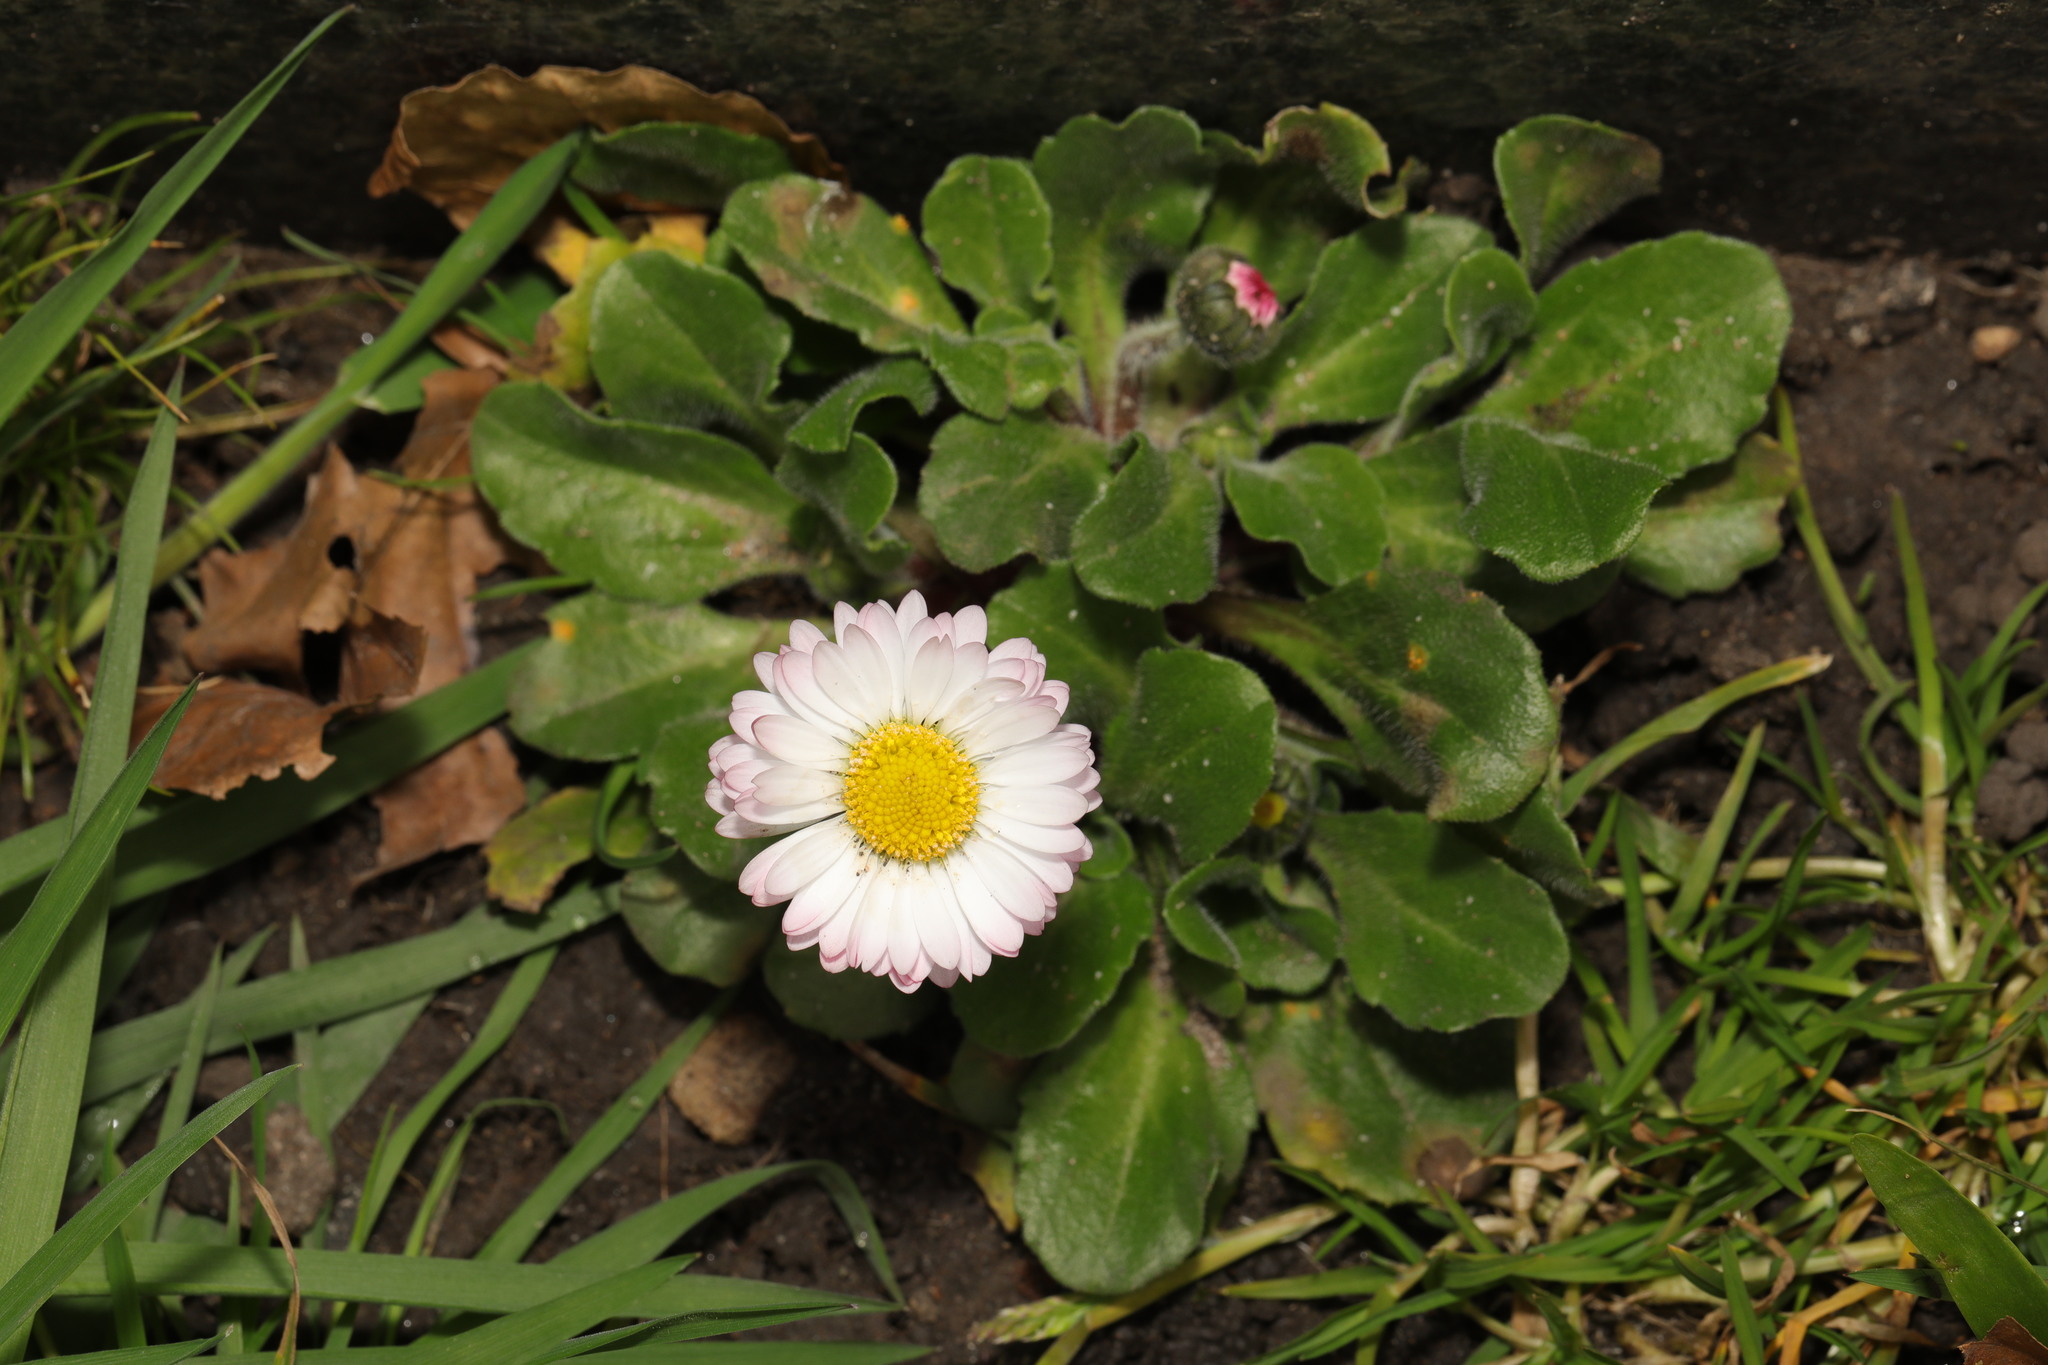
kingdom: Plantae
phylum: Tracheophyta
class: Magnoliopsida
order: Asterales
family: Asteraceae
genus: Bellis
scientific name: Bellis perennis
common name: Lawndaisy
